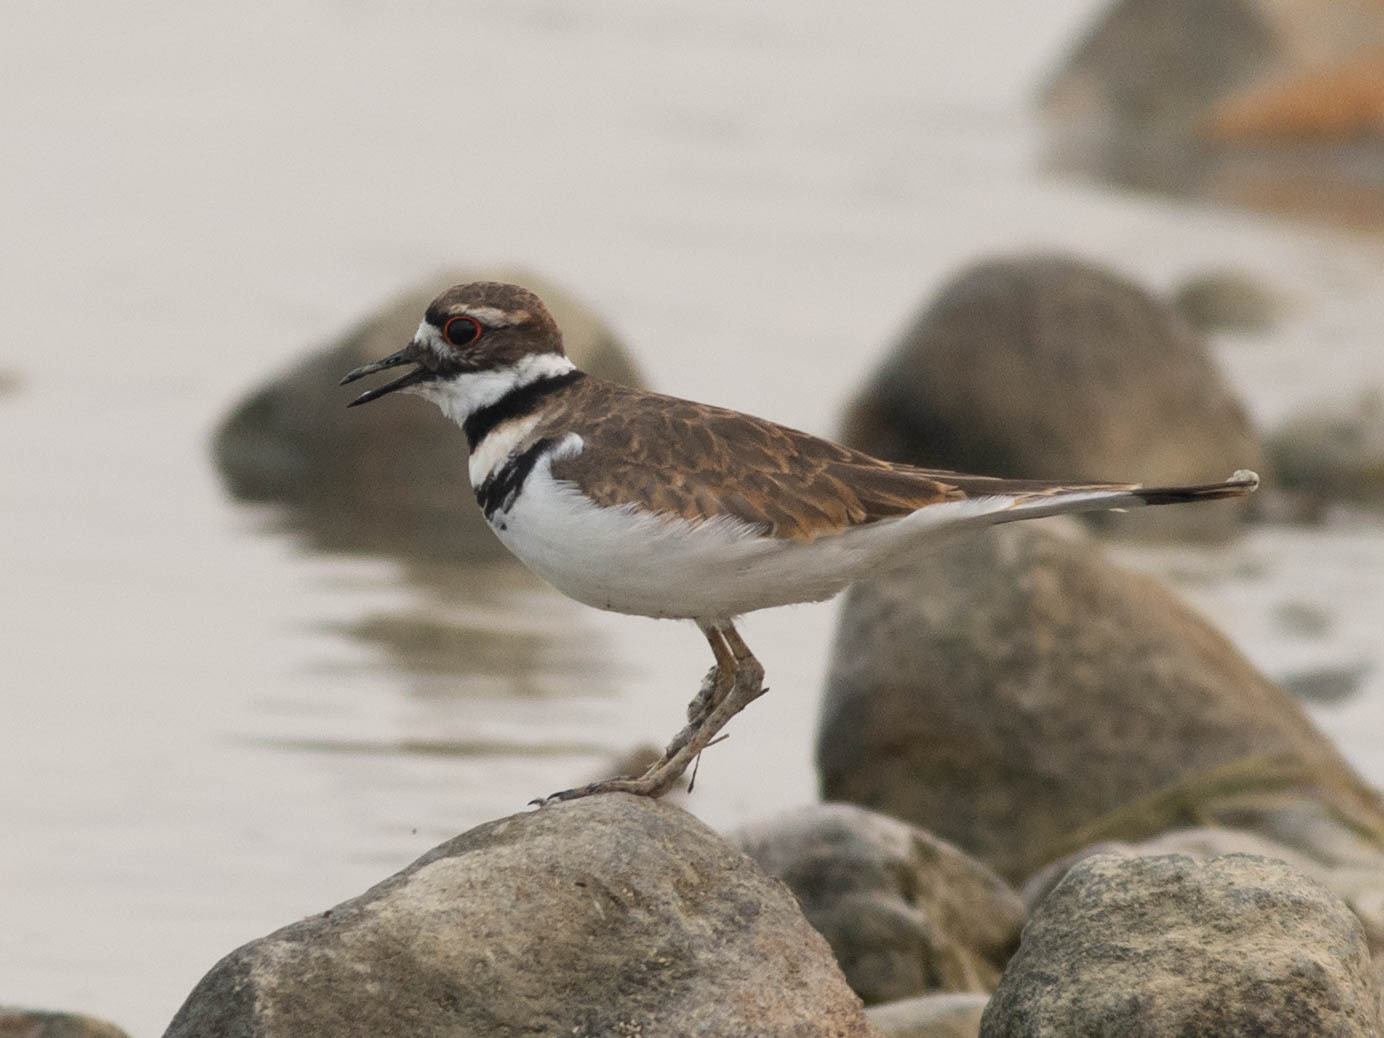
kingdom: Animalia
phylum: Chordata
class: Aves
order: Charadriiformes
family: Charadriidae
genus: Charadrius
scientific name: Charadrius vociferus
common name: Killdeer
